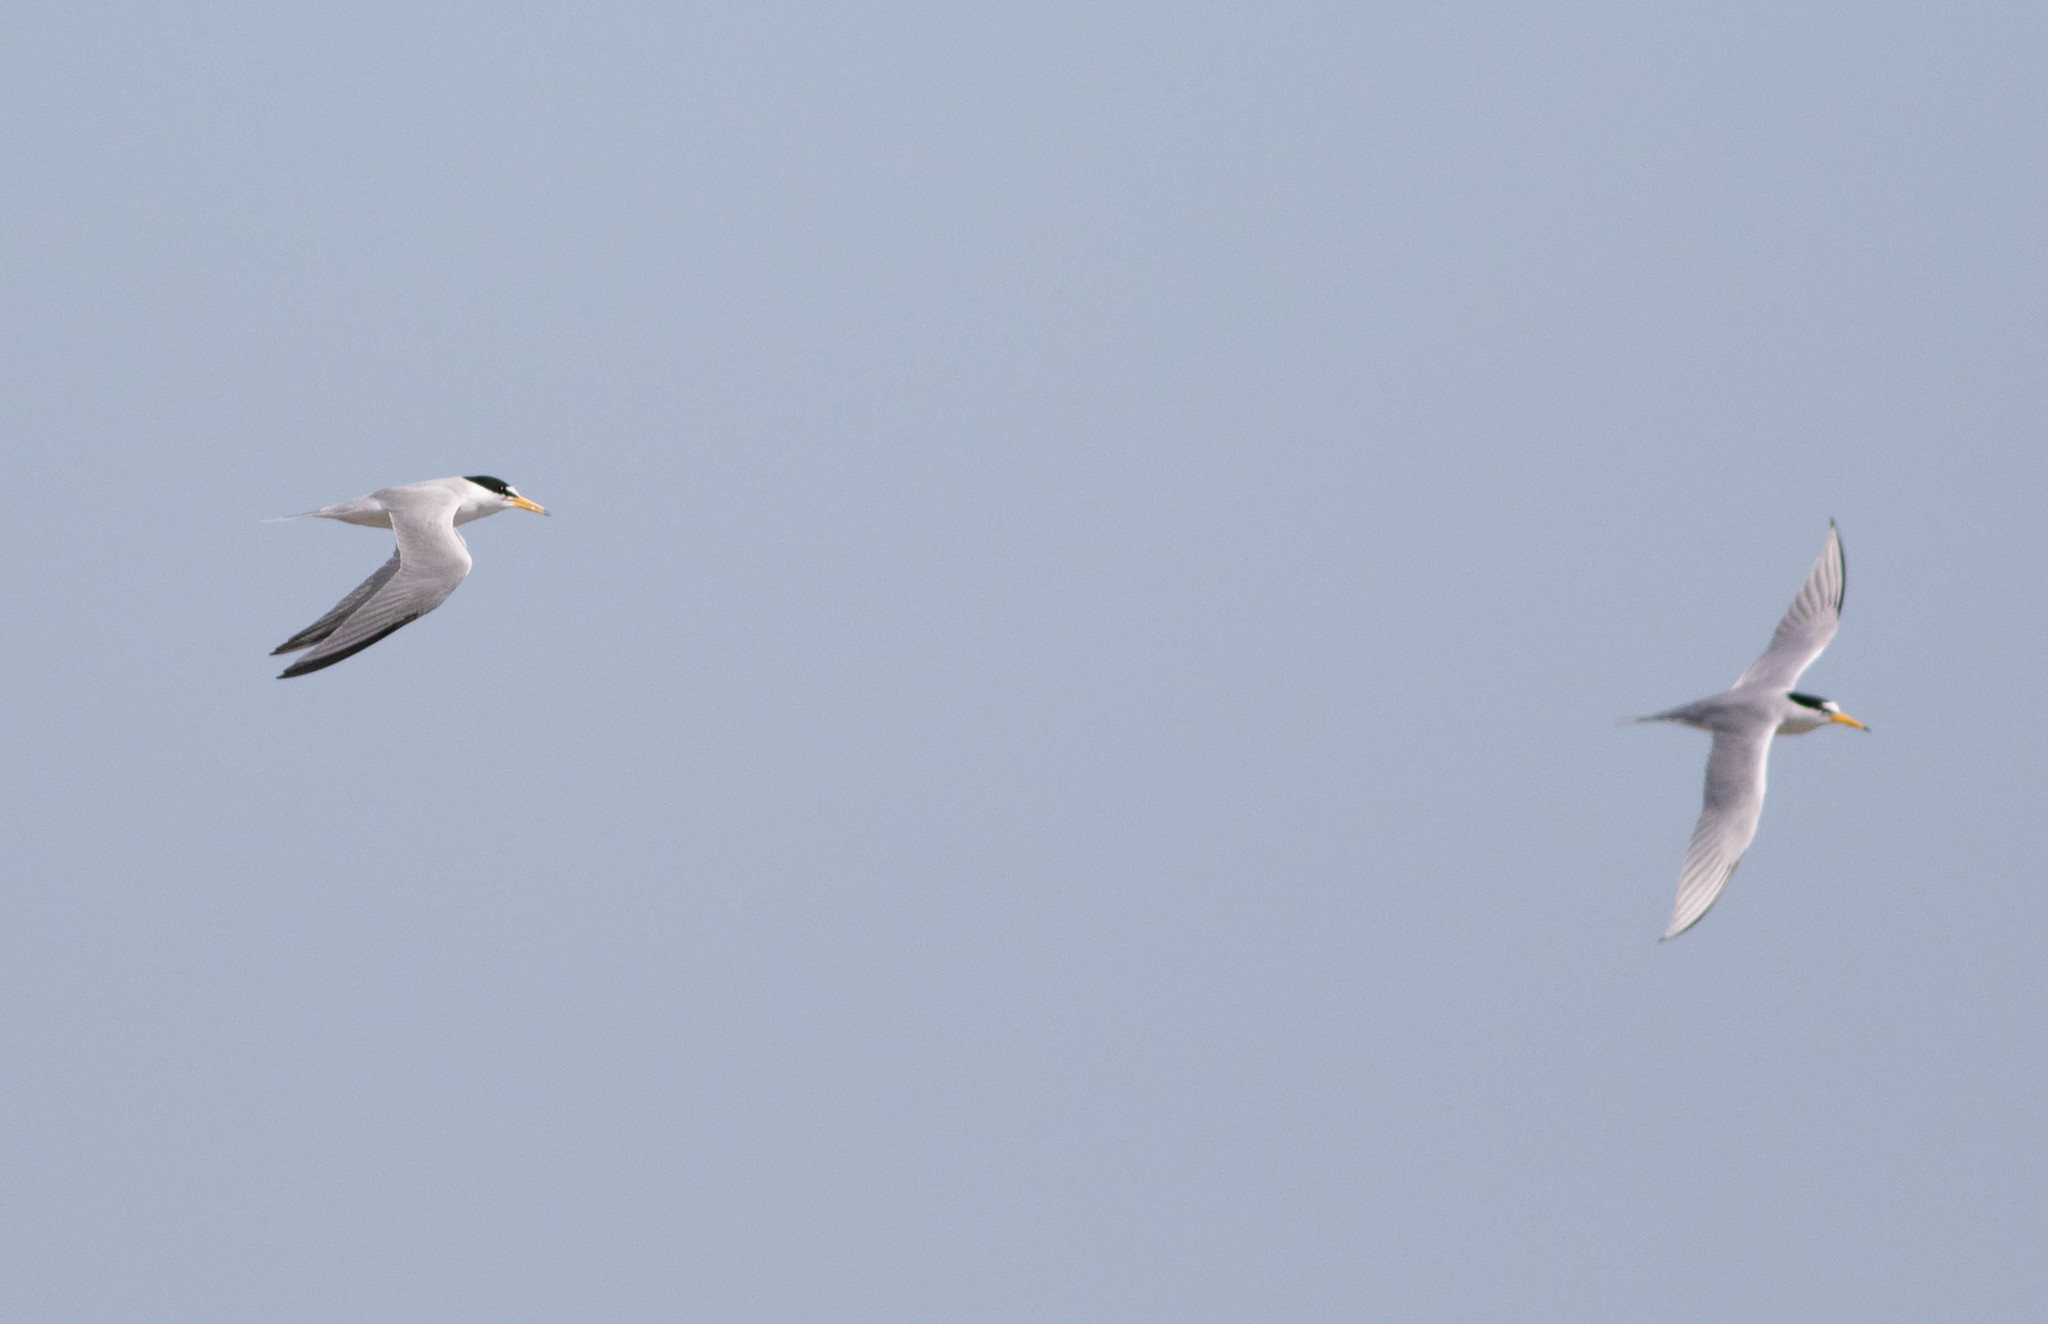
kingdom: Animalia
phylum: Chordata
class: Aves
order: Charadriiformes
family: Laridae
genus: Sternula
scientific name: Sternula antillarum
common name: Least tern
